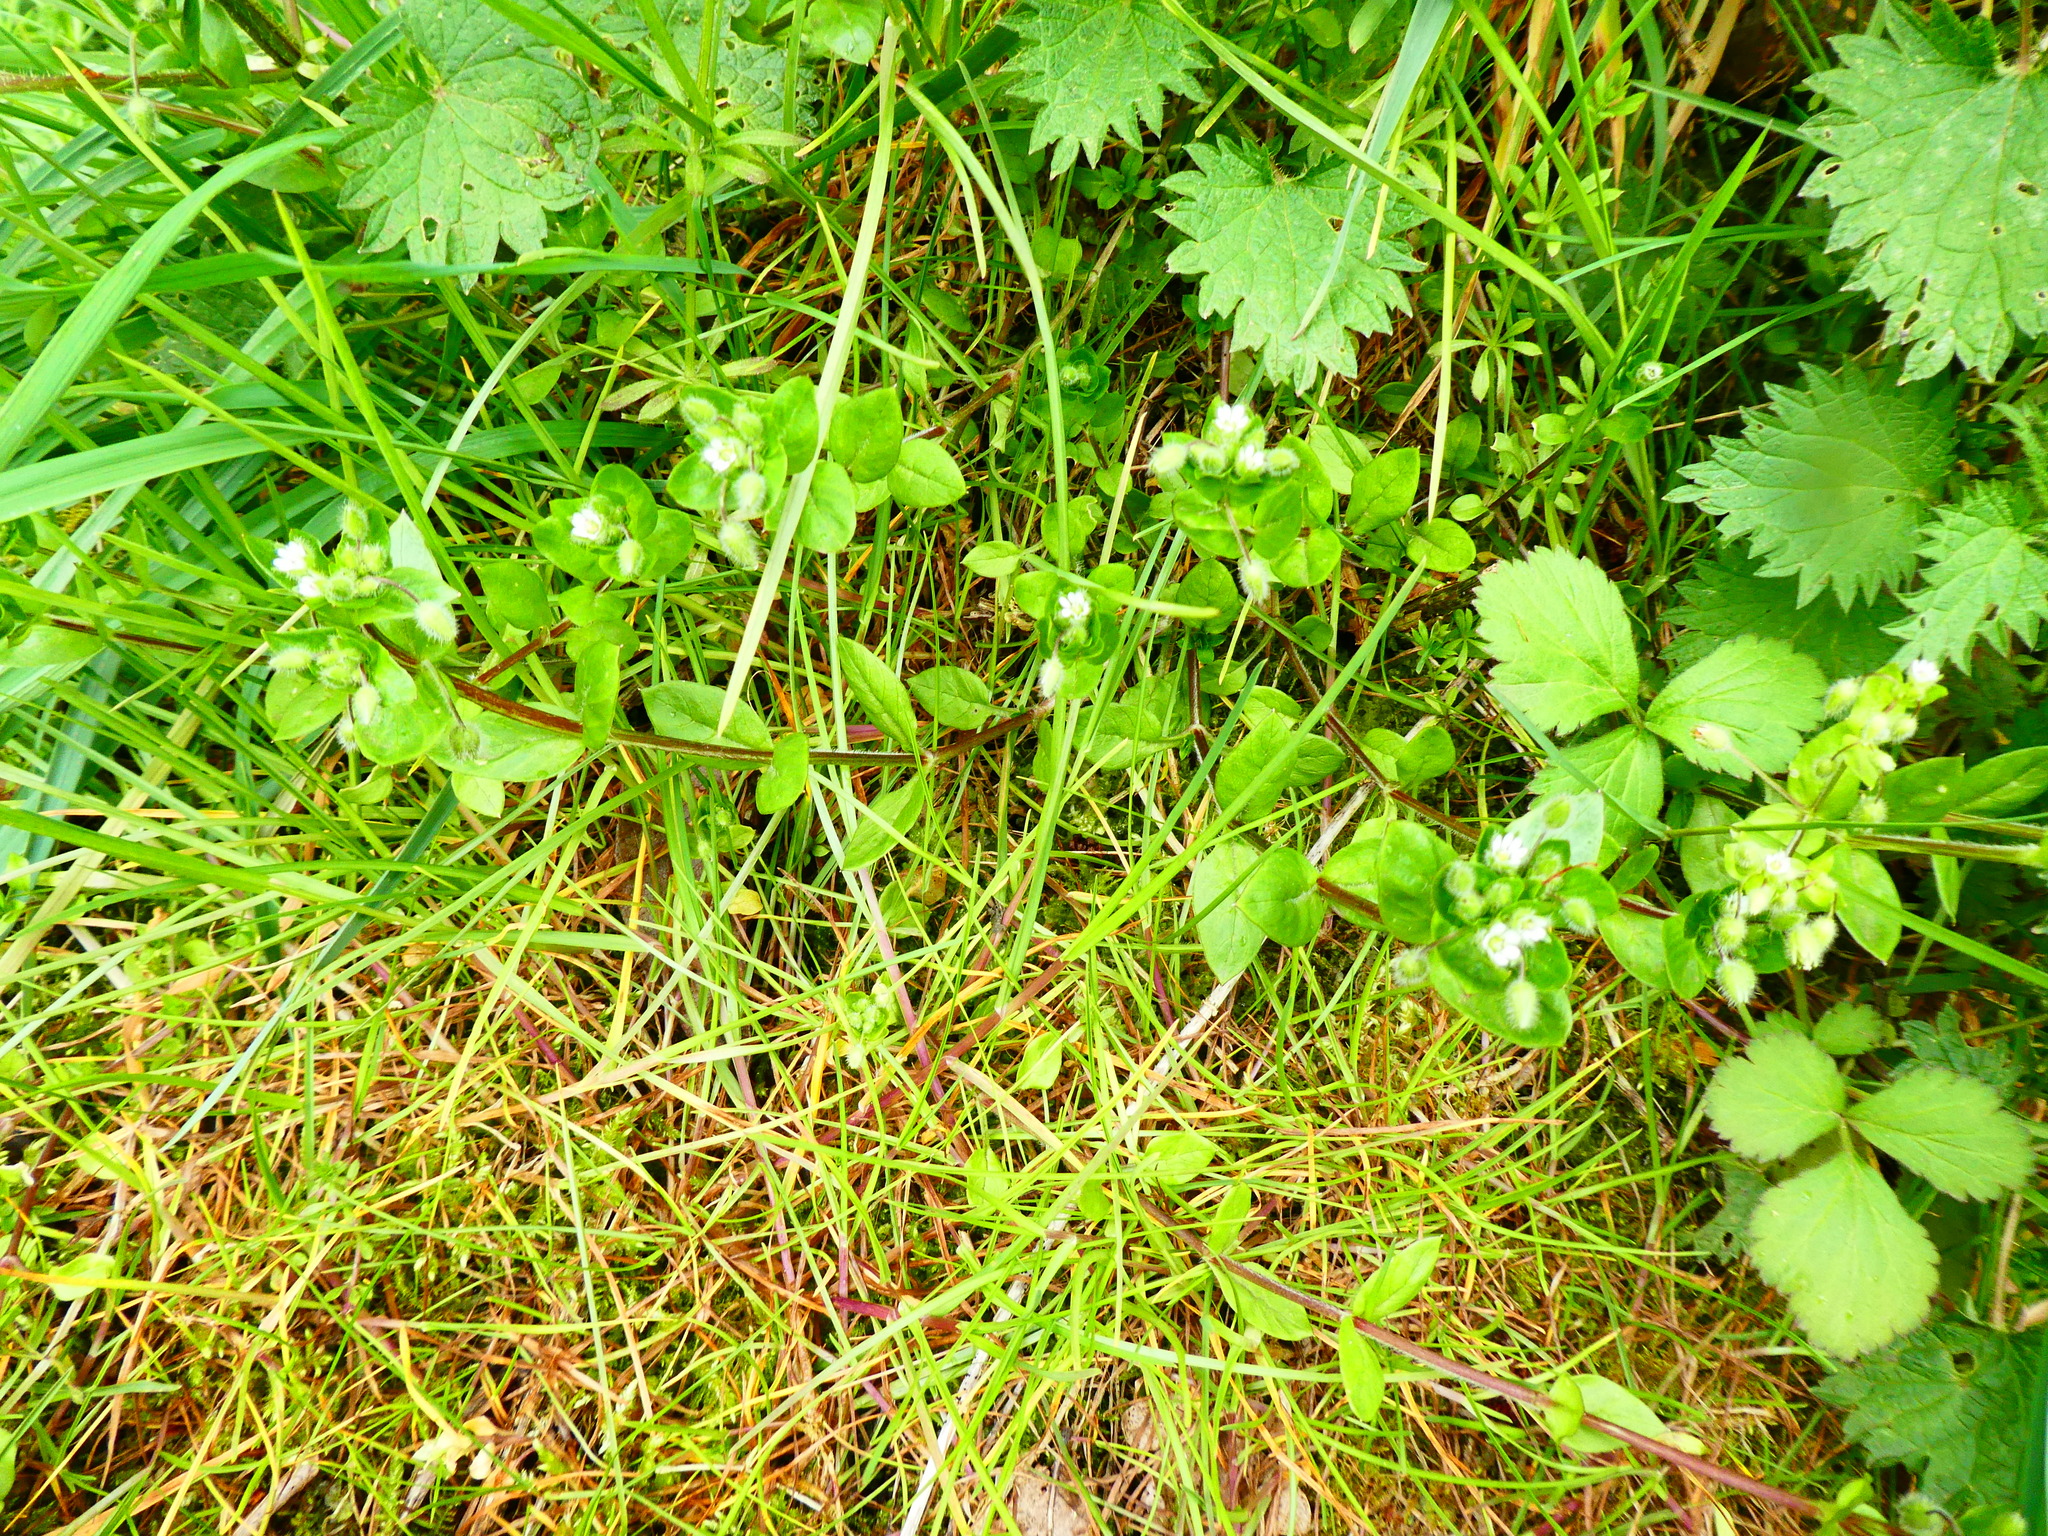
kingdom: Plantae
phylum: Tracheophyta
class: Magnoliopsida
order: Caryophyllales
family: Caryophyllaceae
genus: Stellaria
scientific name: Stellaria media
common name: Common chickweed
